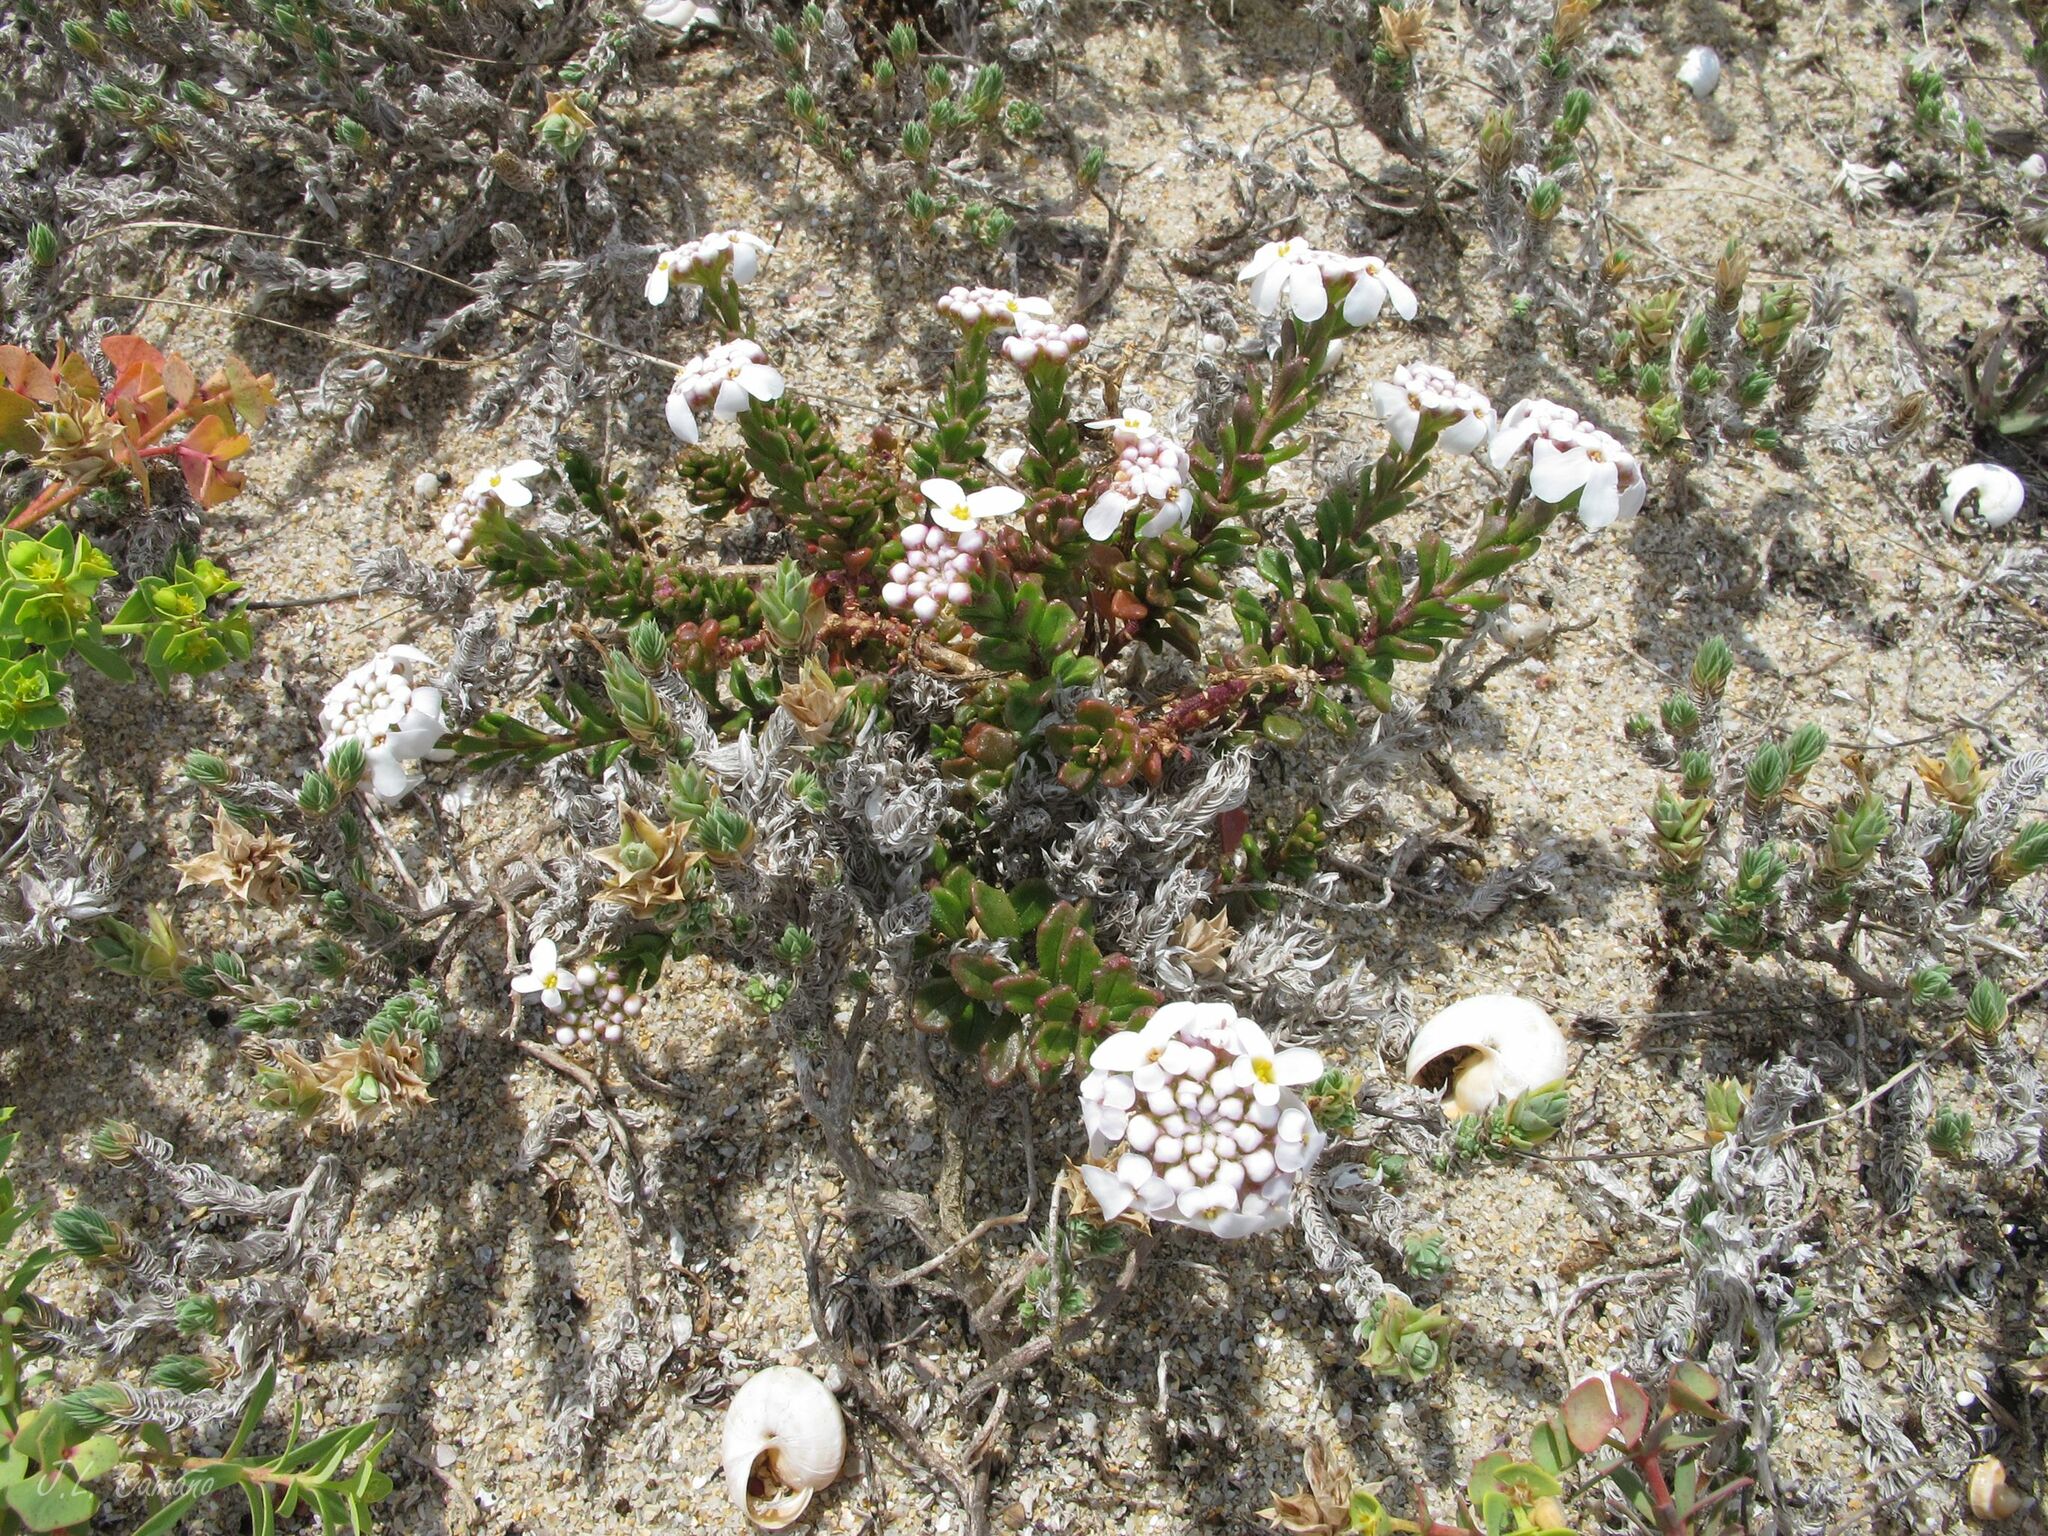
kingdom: Plantae
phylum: Tracheophyta
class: Magnoliopsida
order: Brassicales
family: Brassicaceae
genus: Iberis
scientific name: Iberis procumbens
